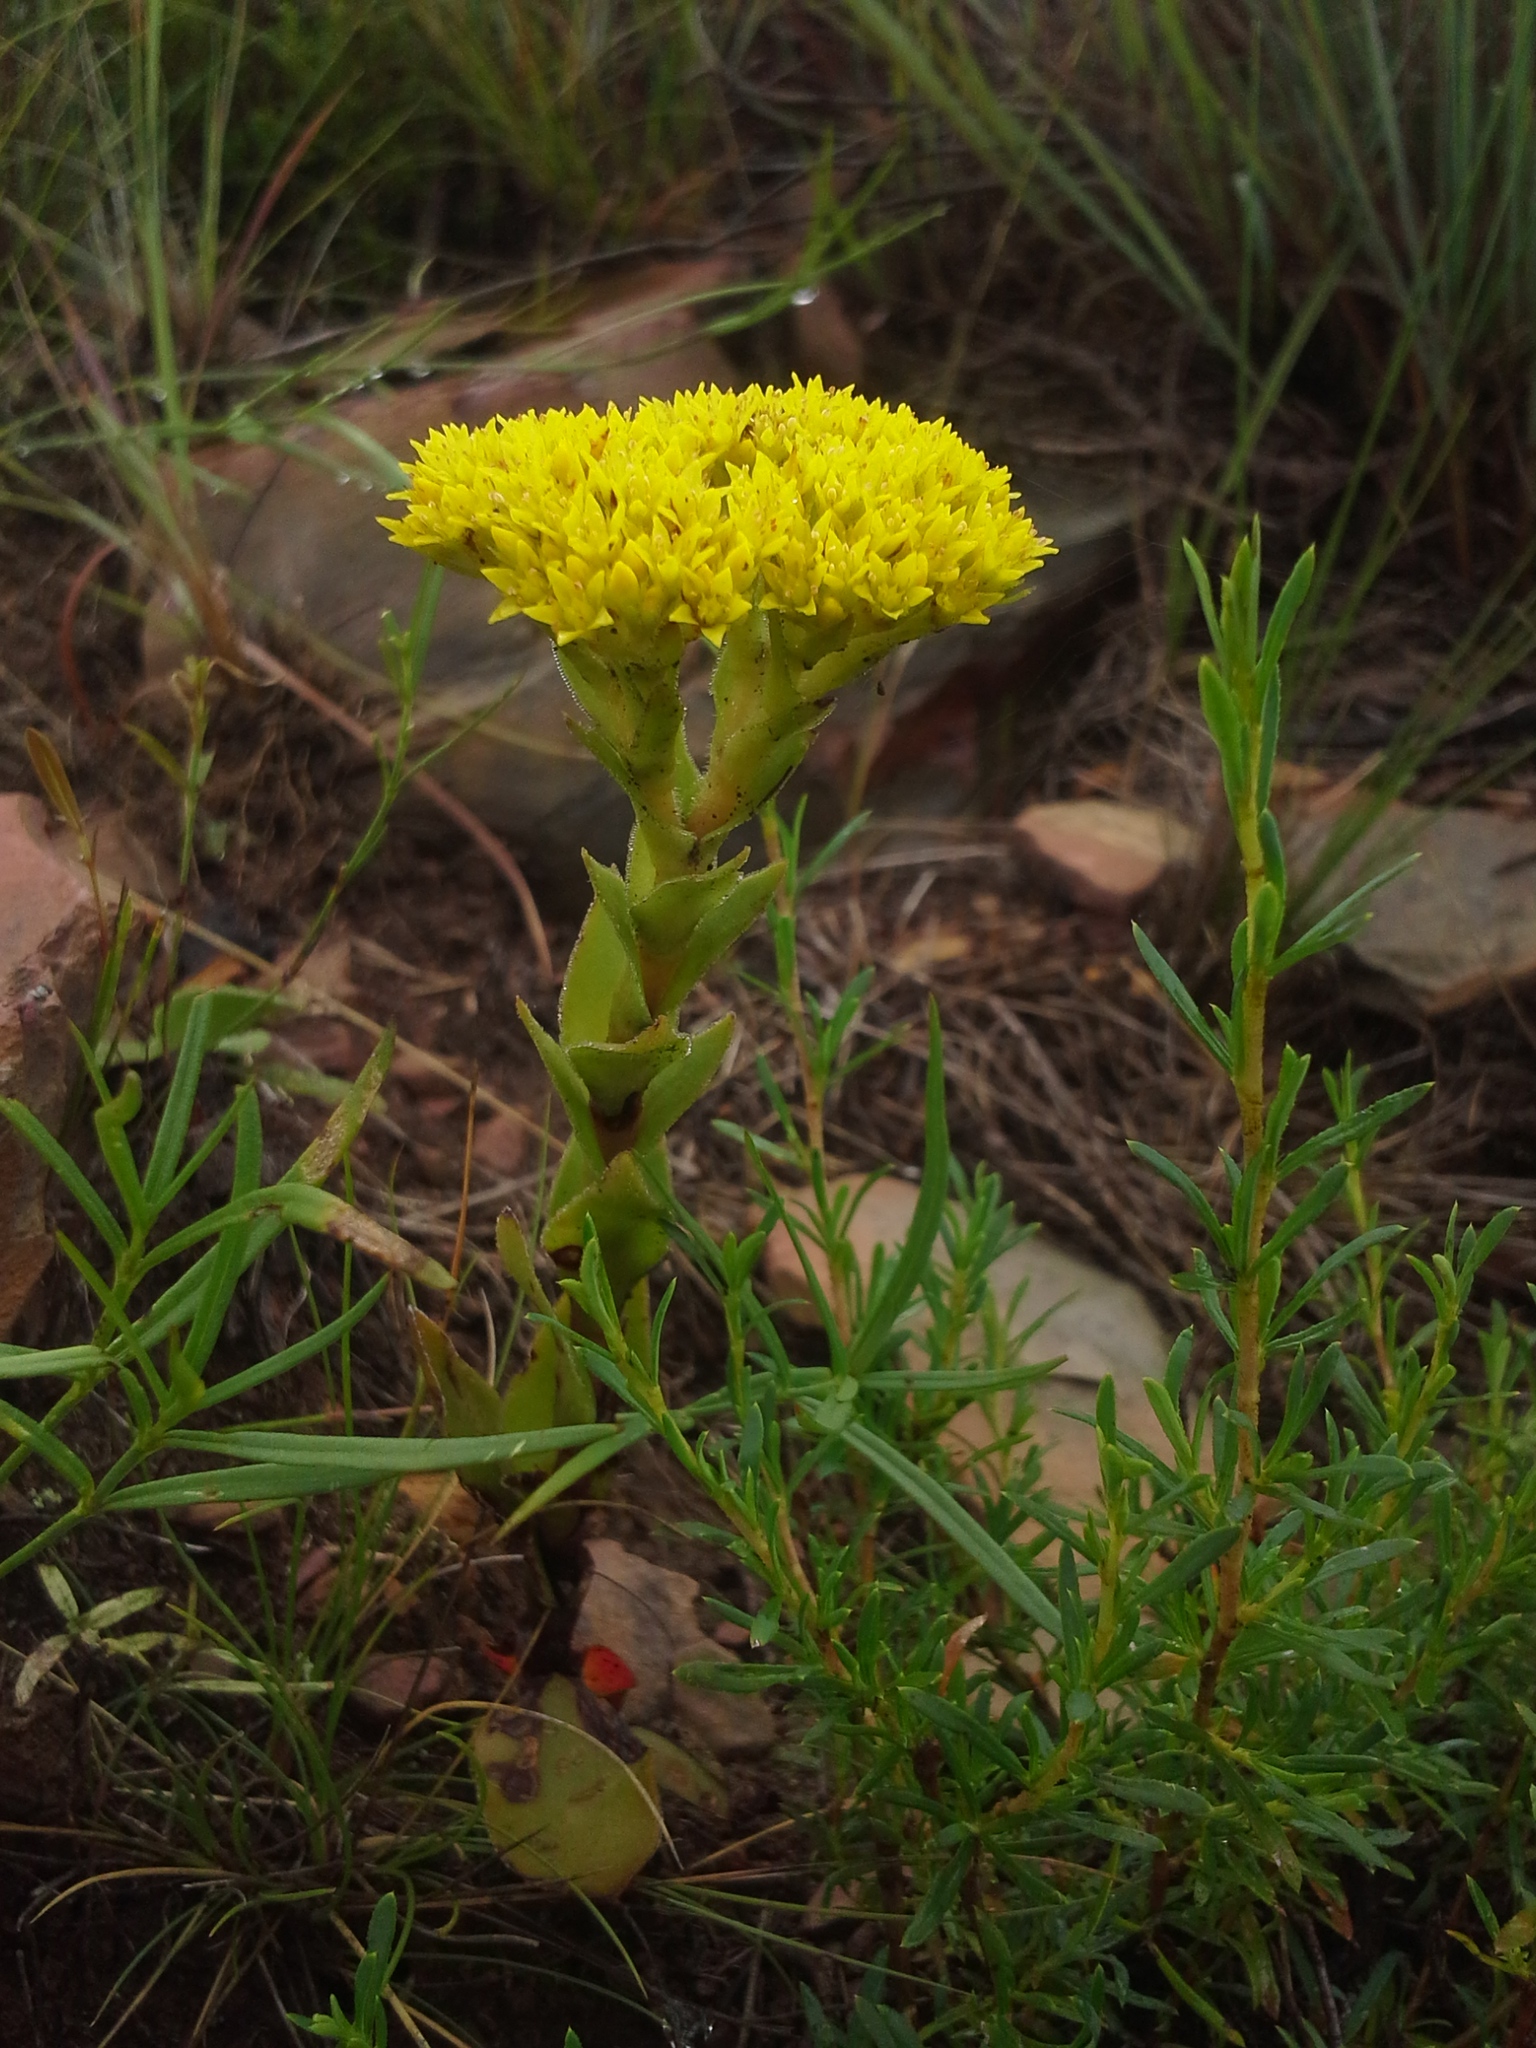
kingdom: Plantae
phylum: Tracheophyta
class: Magnoliopsida
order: Saxifragales
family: Crassulaceae
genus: Crassula
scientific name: Crassula vaginata
